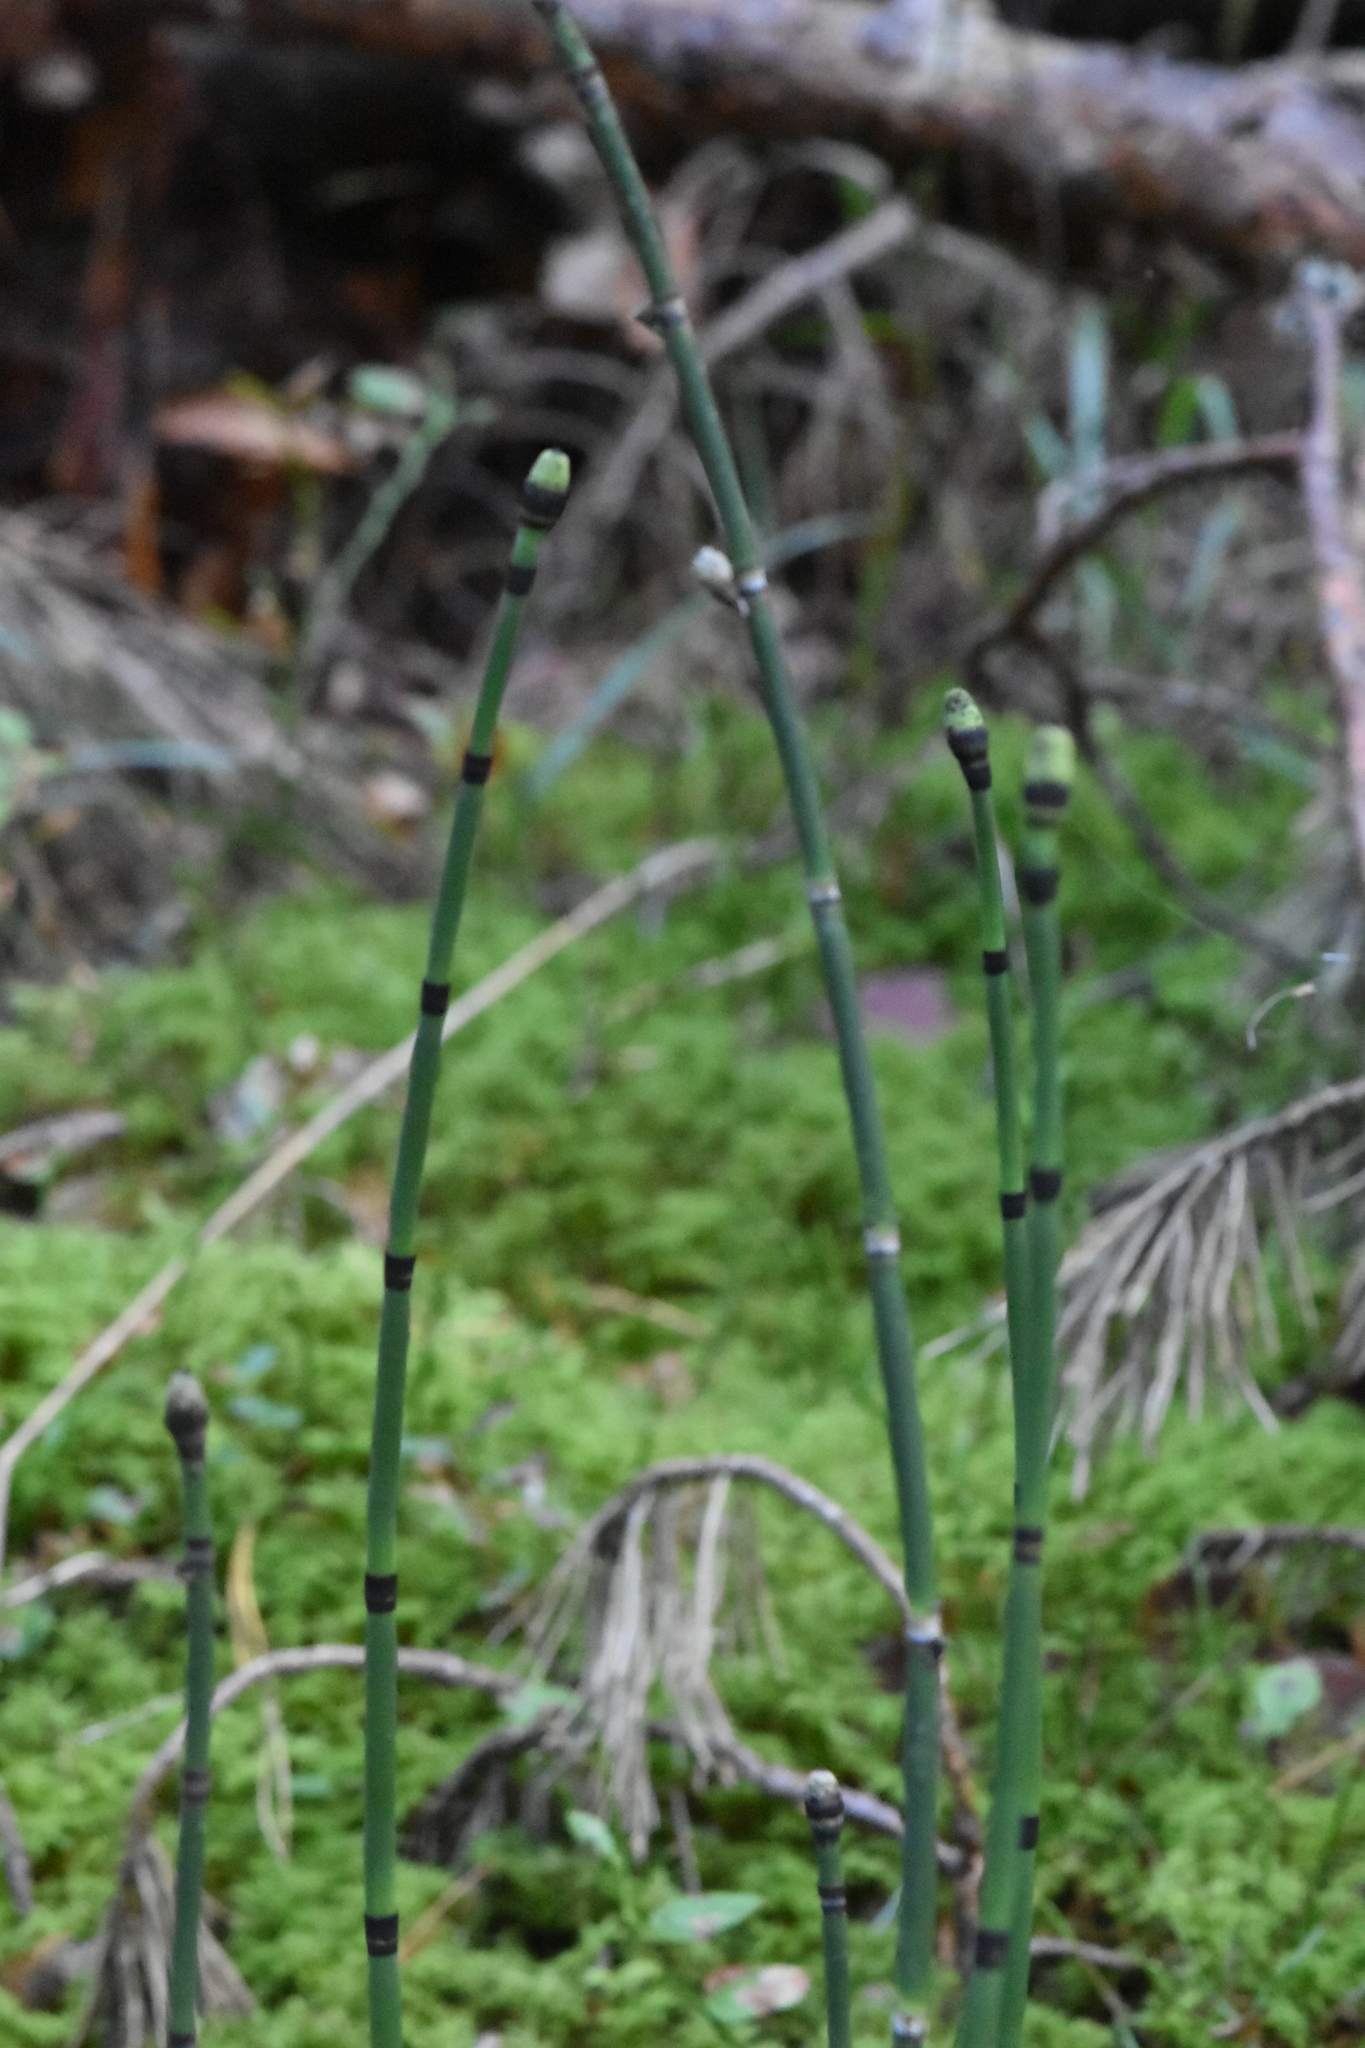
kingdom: Plantae
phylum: Tracheophyta
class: Polypodiopsida
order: Equisetales
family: Equisetaceae
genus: Equisetum
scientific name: Equisetum hyemale
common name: Rough horsetail
